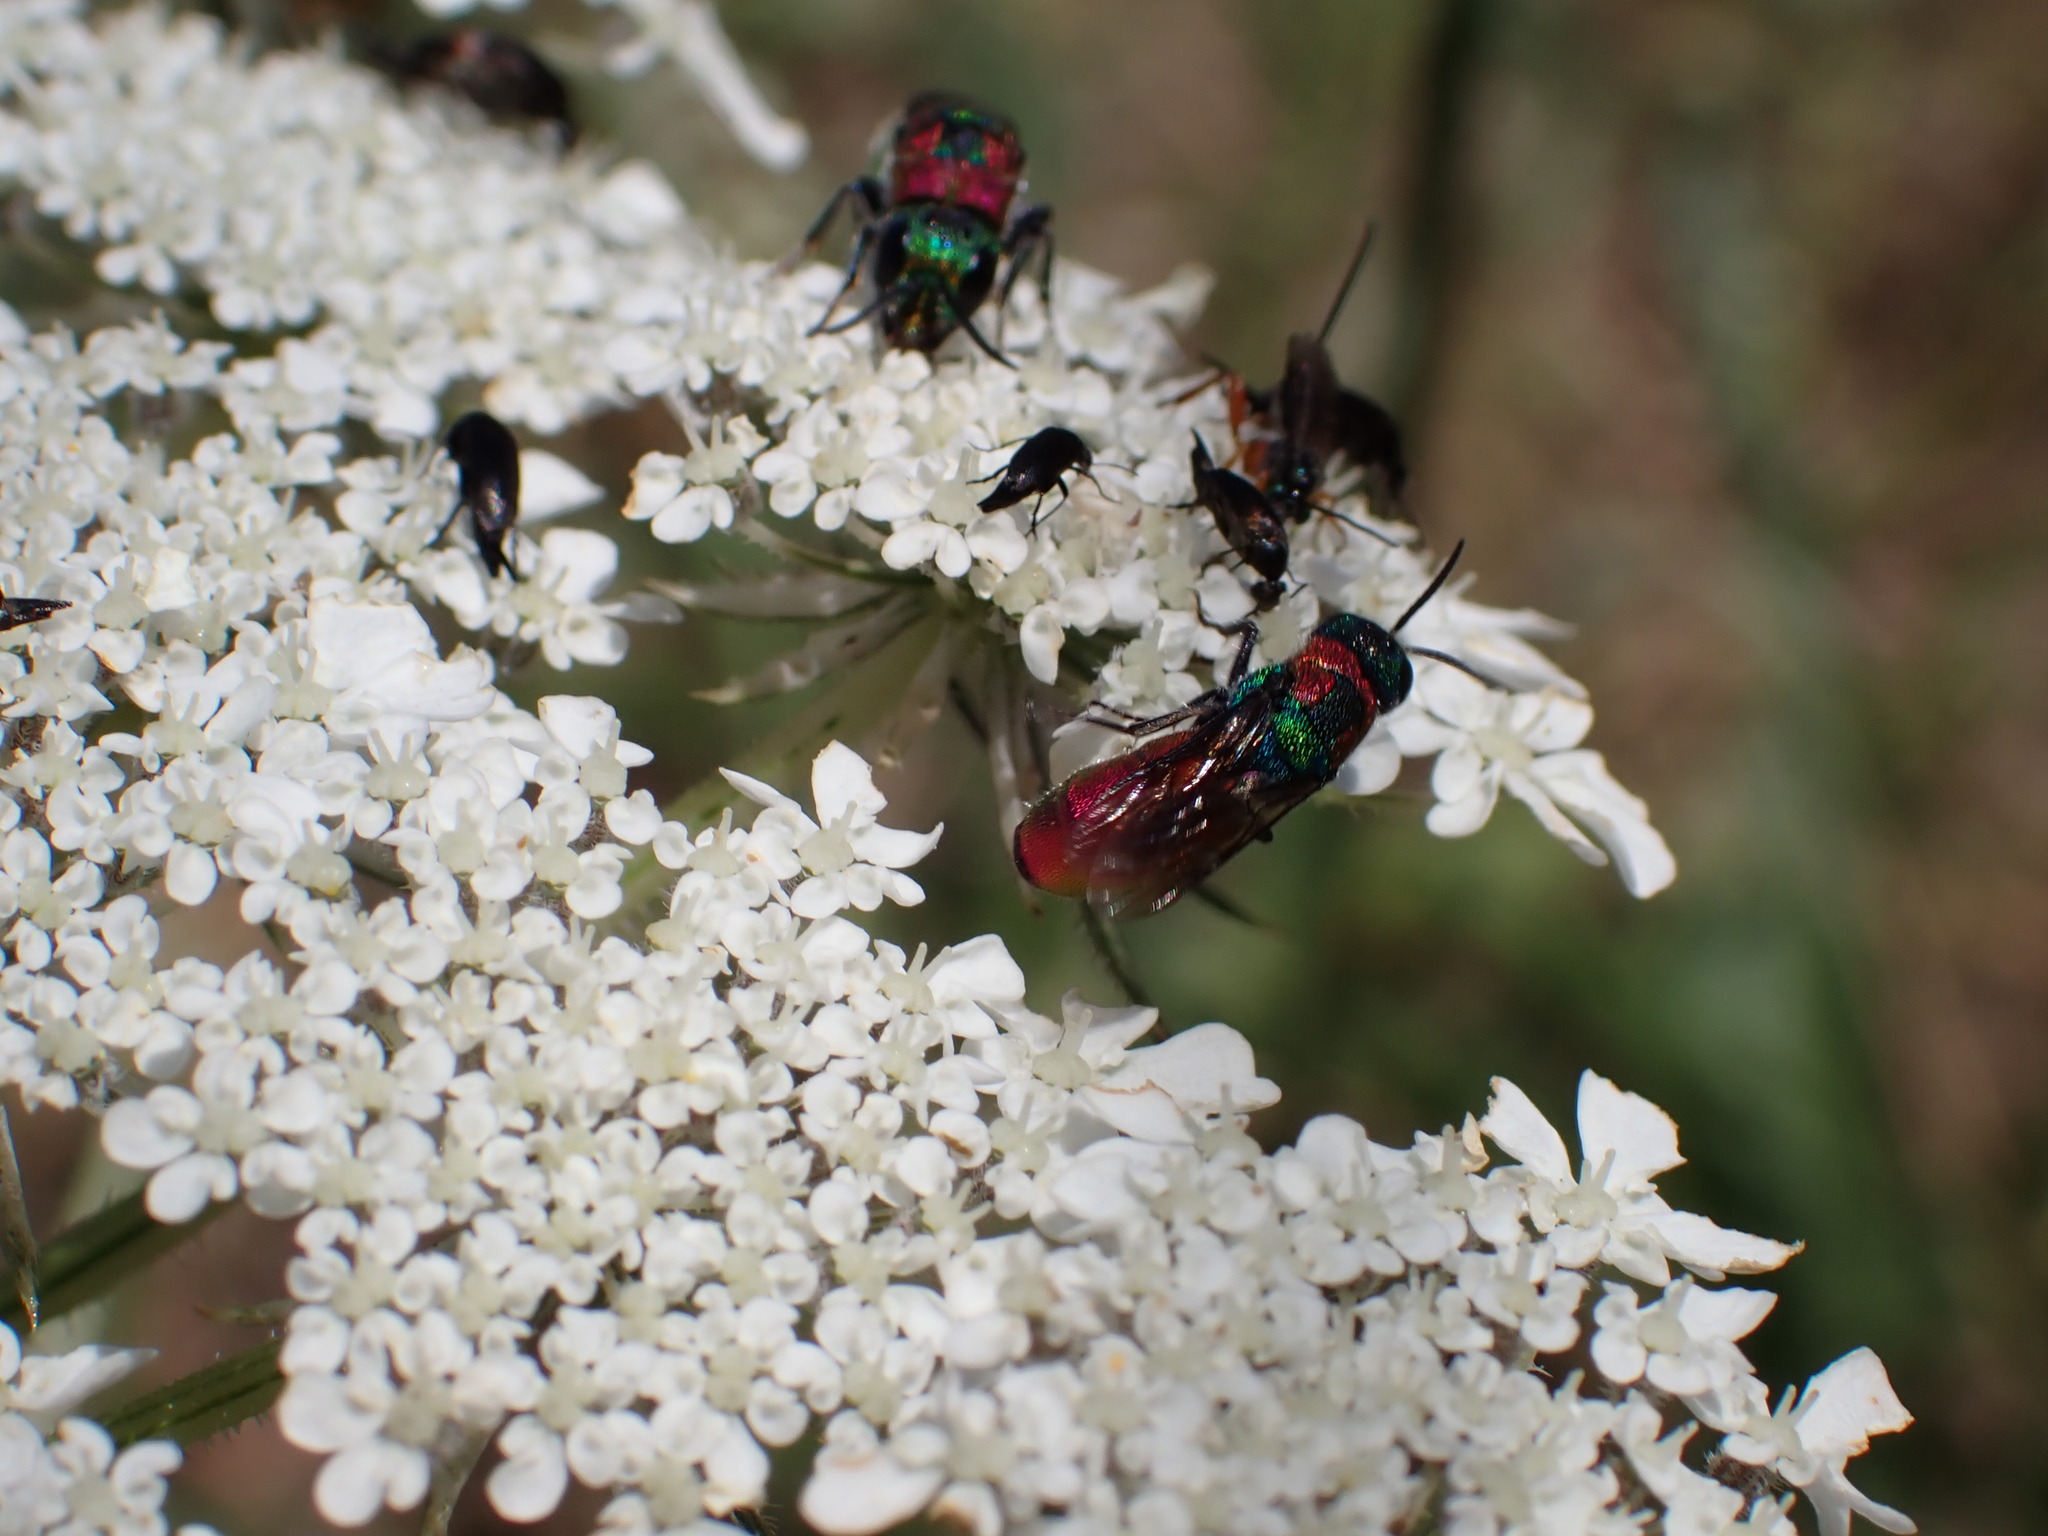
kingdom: Animalia
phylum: Arthropoda
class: Insecta
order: Hymenoptera
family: Chrysididae
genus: Chrysis
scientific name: Chrysis elegans
